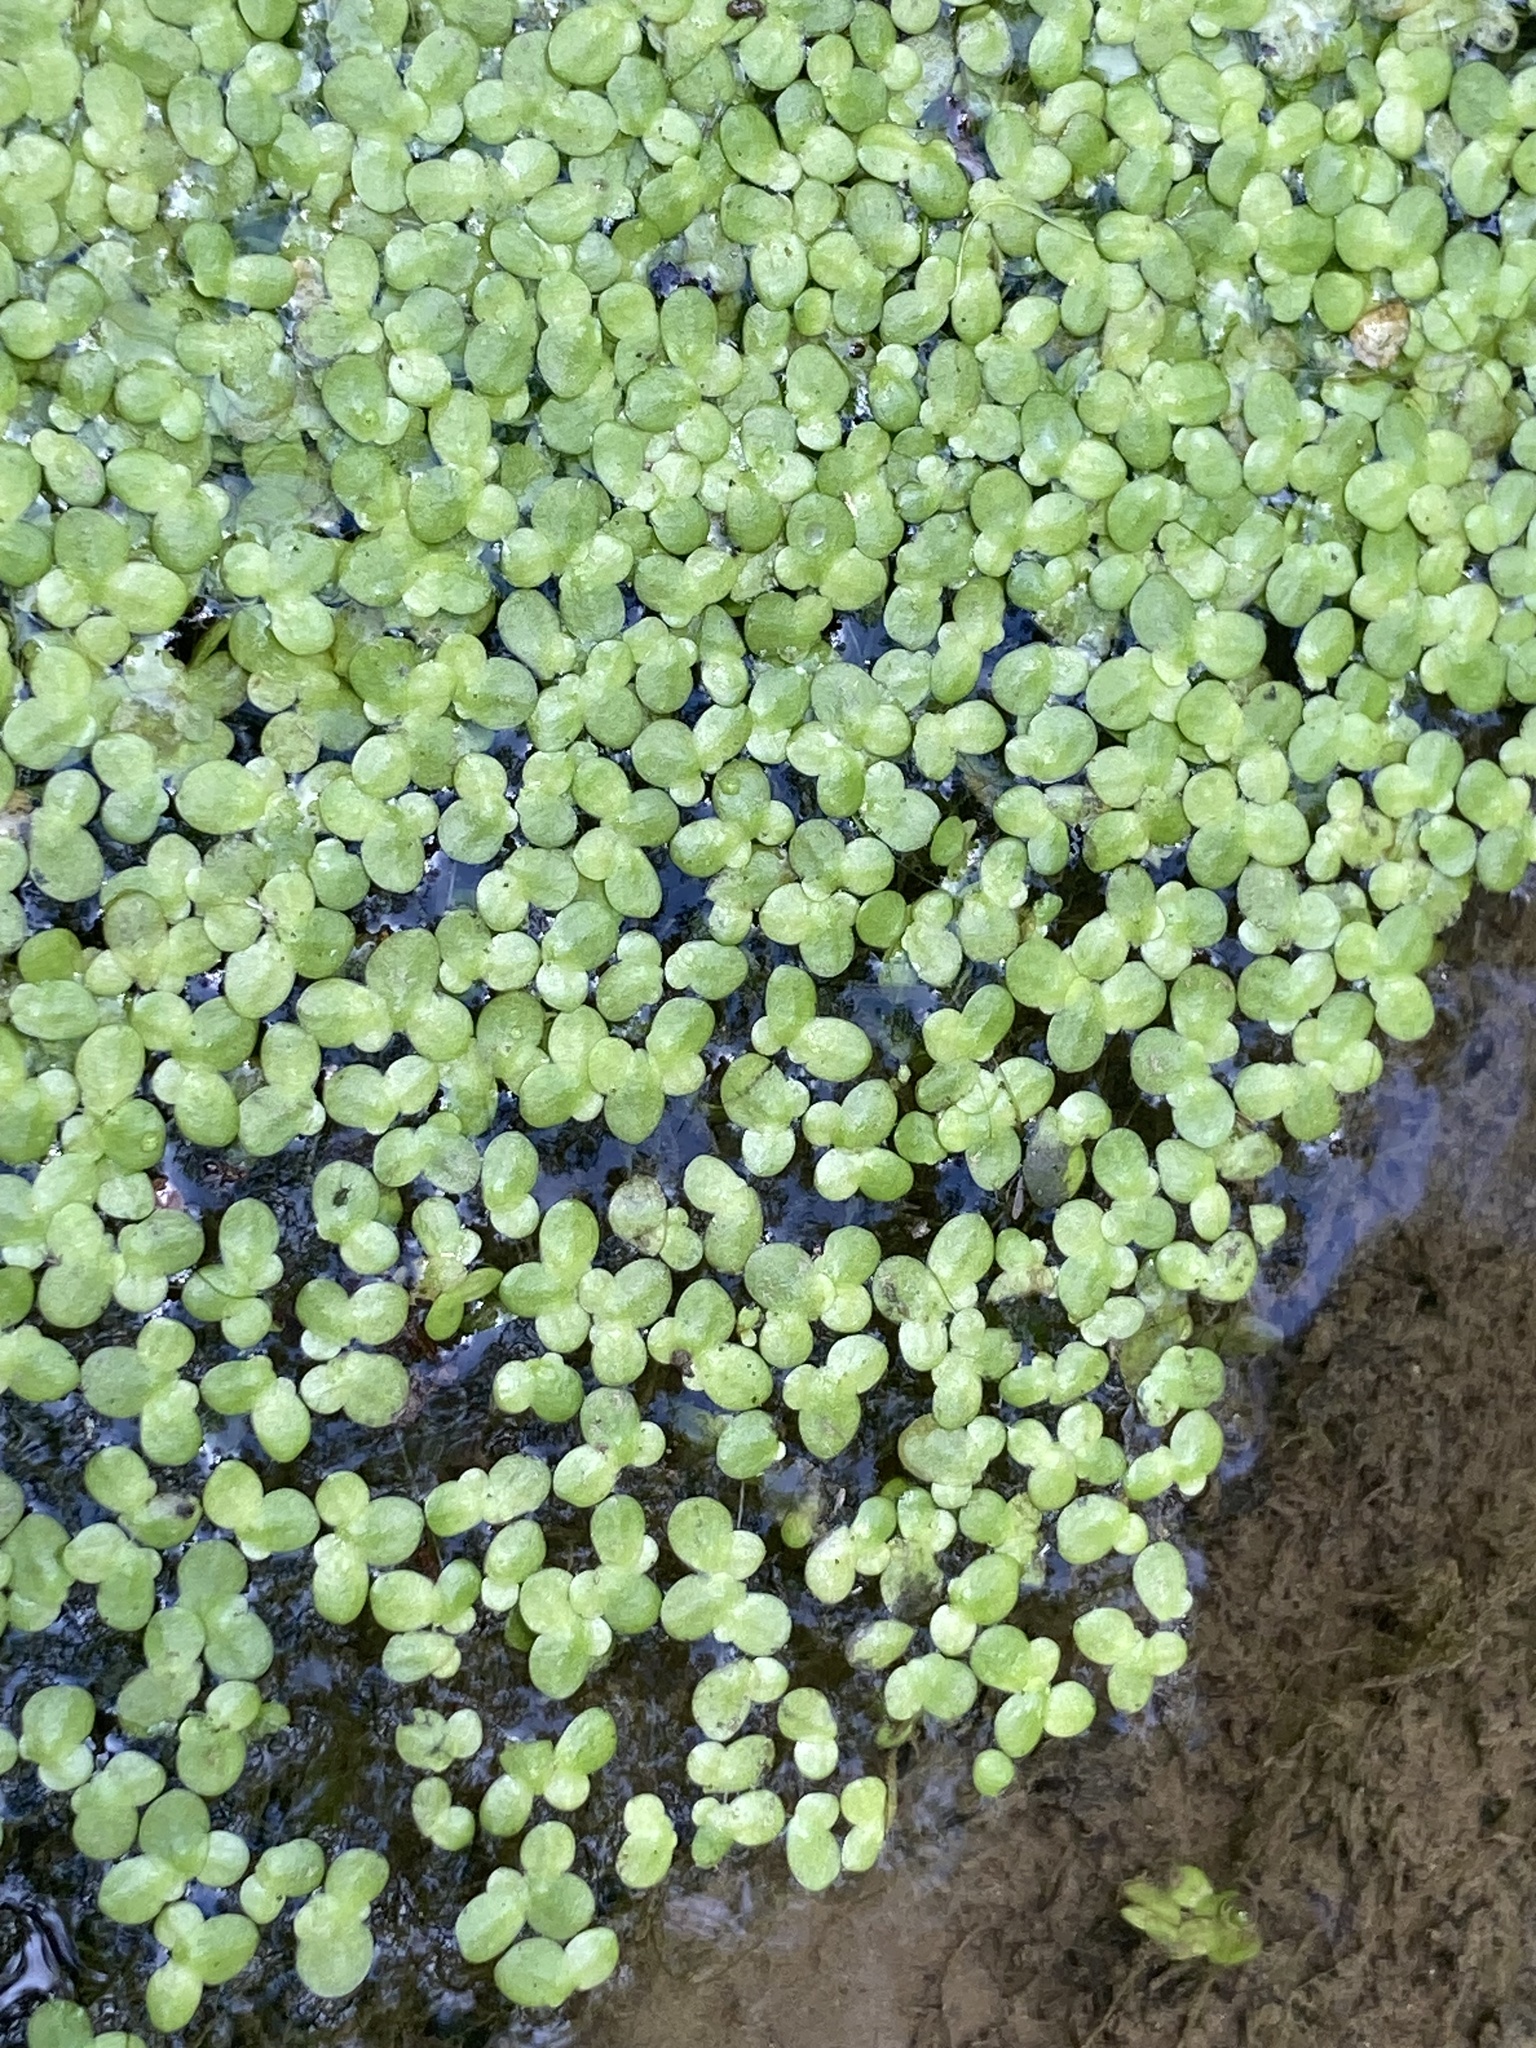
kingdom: Plantae
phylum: Tracheophyta
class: Liliopsida
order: Alismatales
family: Araceae
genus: Lemna
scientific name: Lemna minor
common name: Common duckweed
